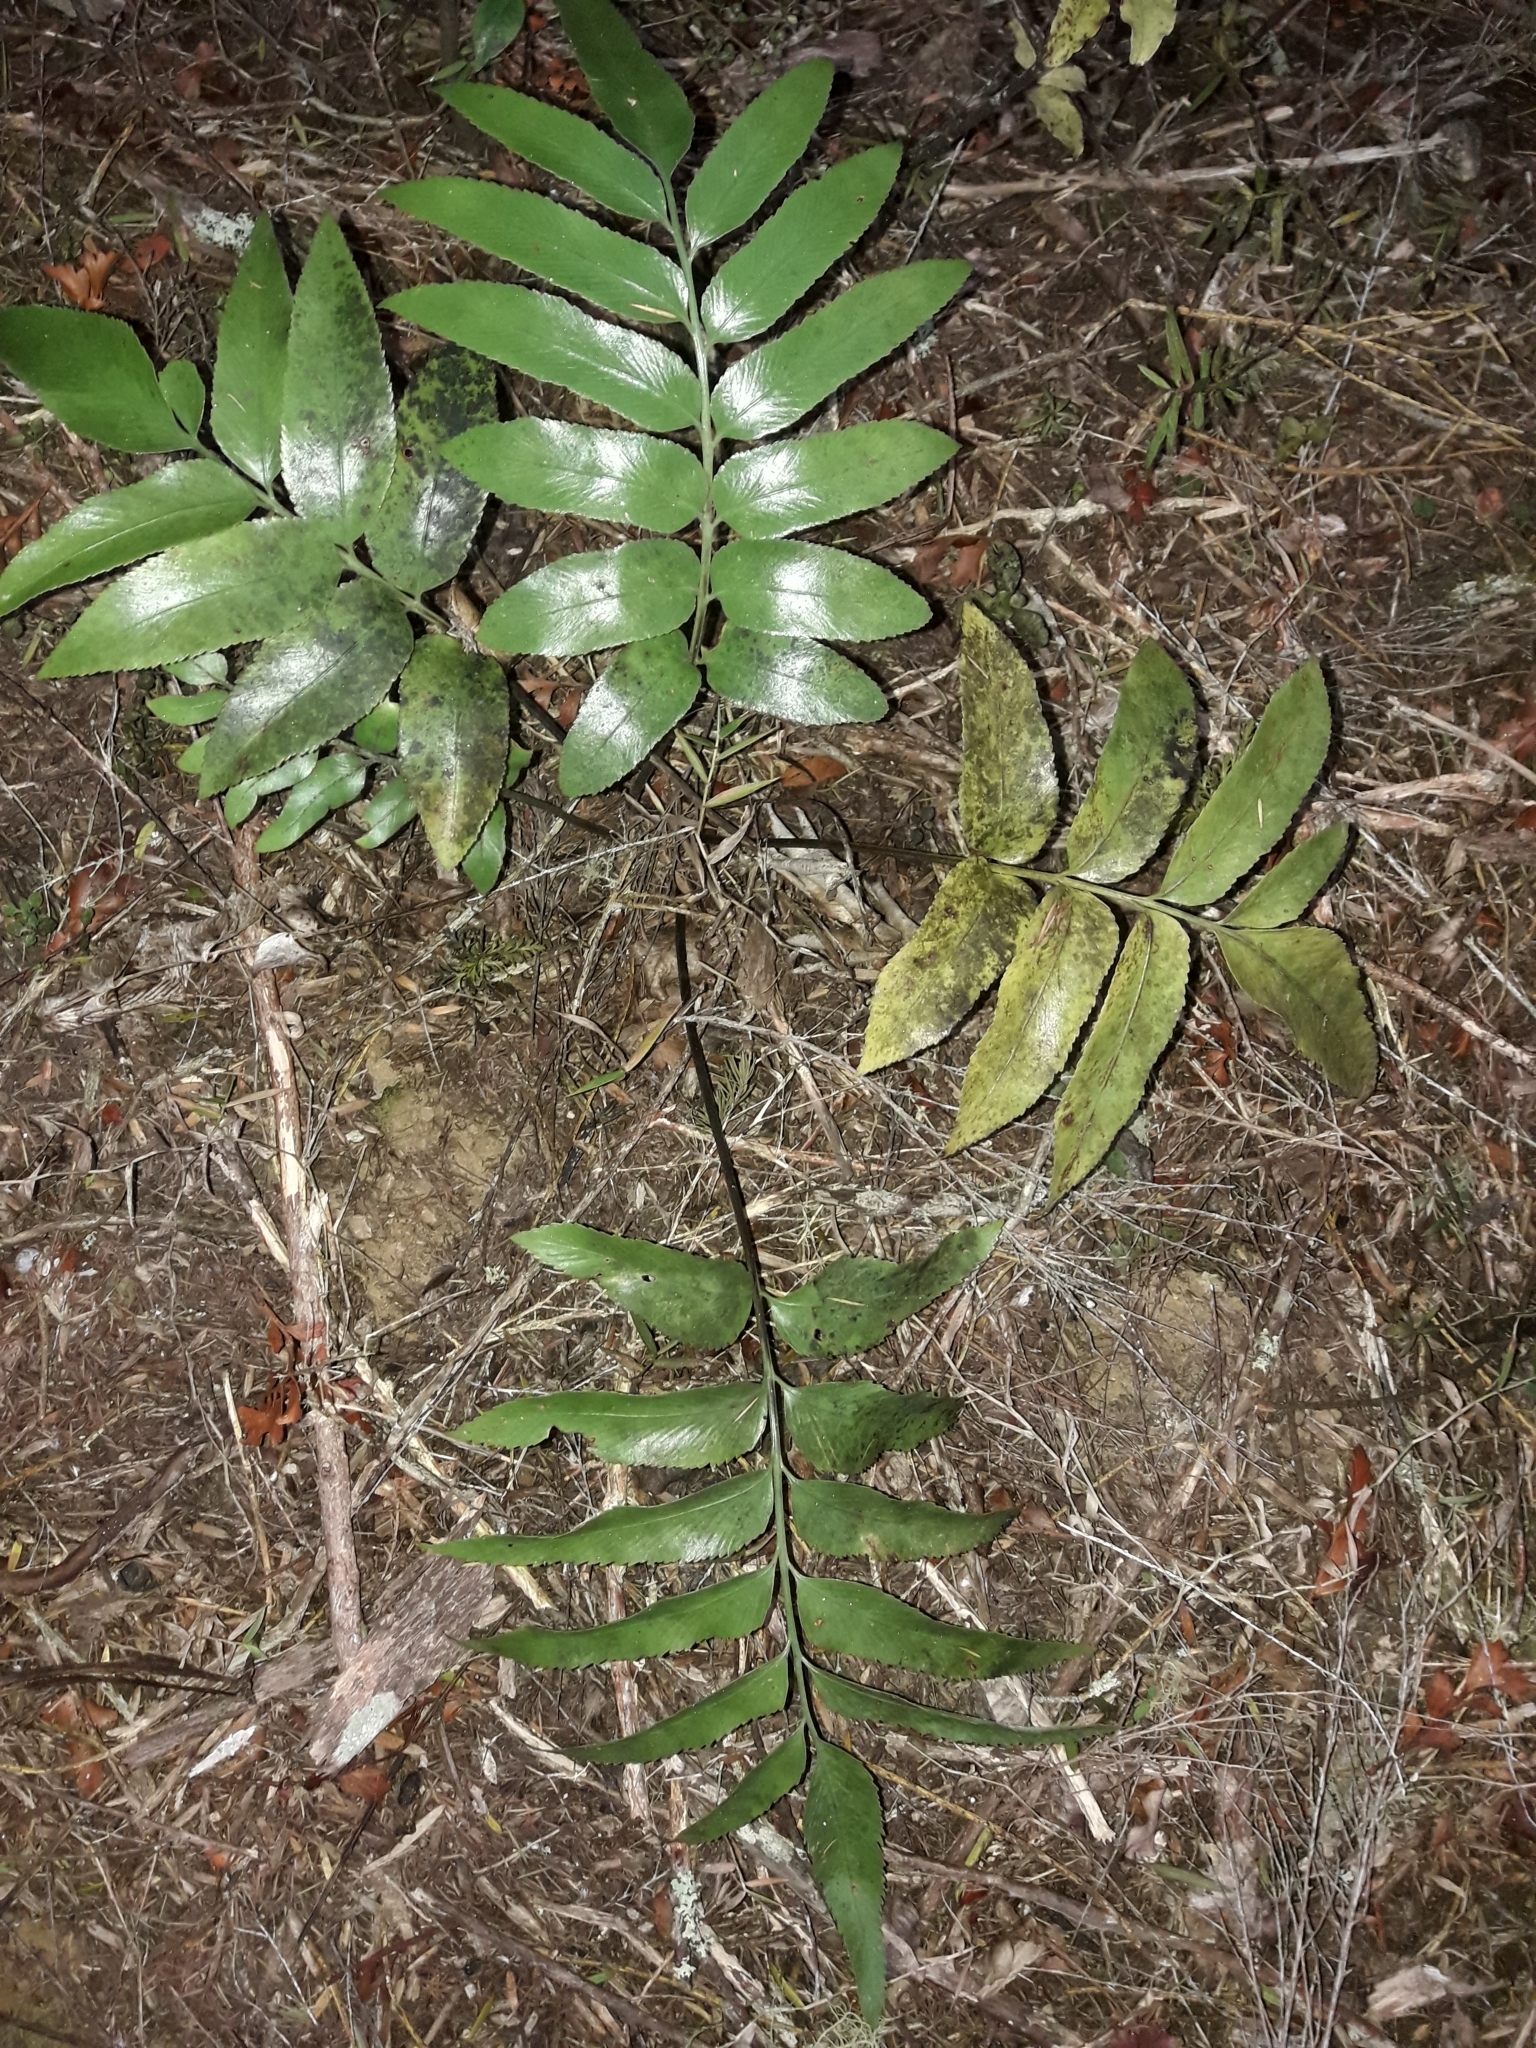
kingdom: Plantae
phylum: Tracheophyta
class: Polypodiopsida
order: Polypodiales
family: Aspleniaceae
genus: Asplenium
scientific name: Asplenium oblongifolium
